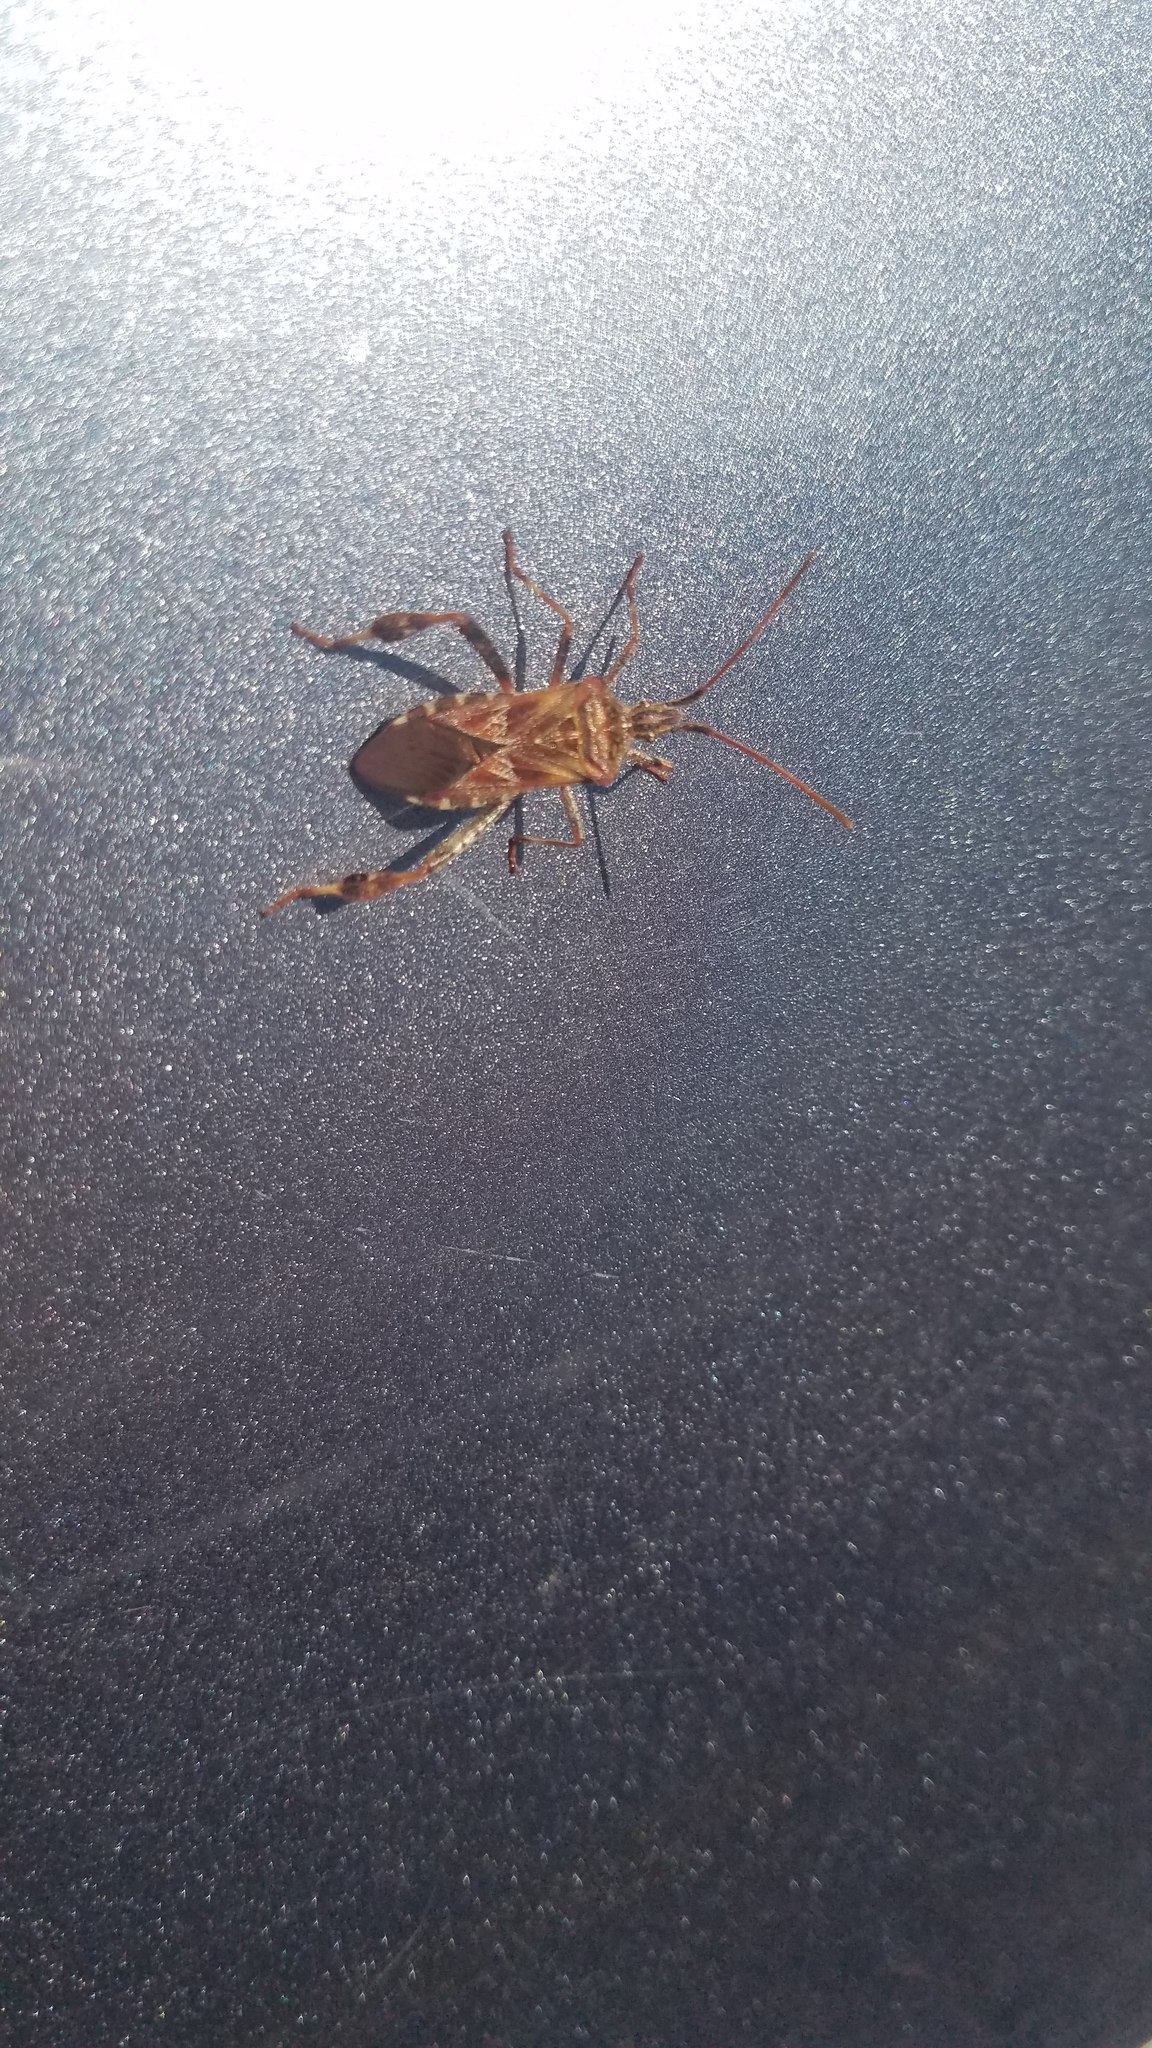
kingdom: Animalia
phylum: Arthropoda
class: Insecta
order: Hemiptera
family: Coreidae
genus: Leptoglossus
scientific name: Leptoglossus occidentalis
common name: Western conifer-seed bug
